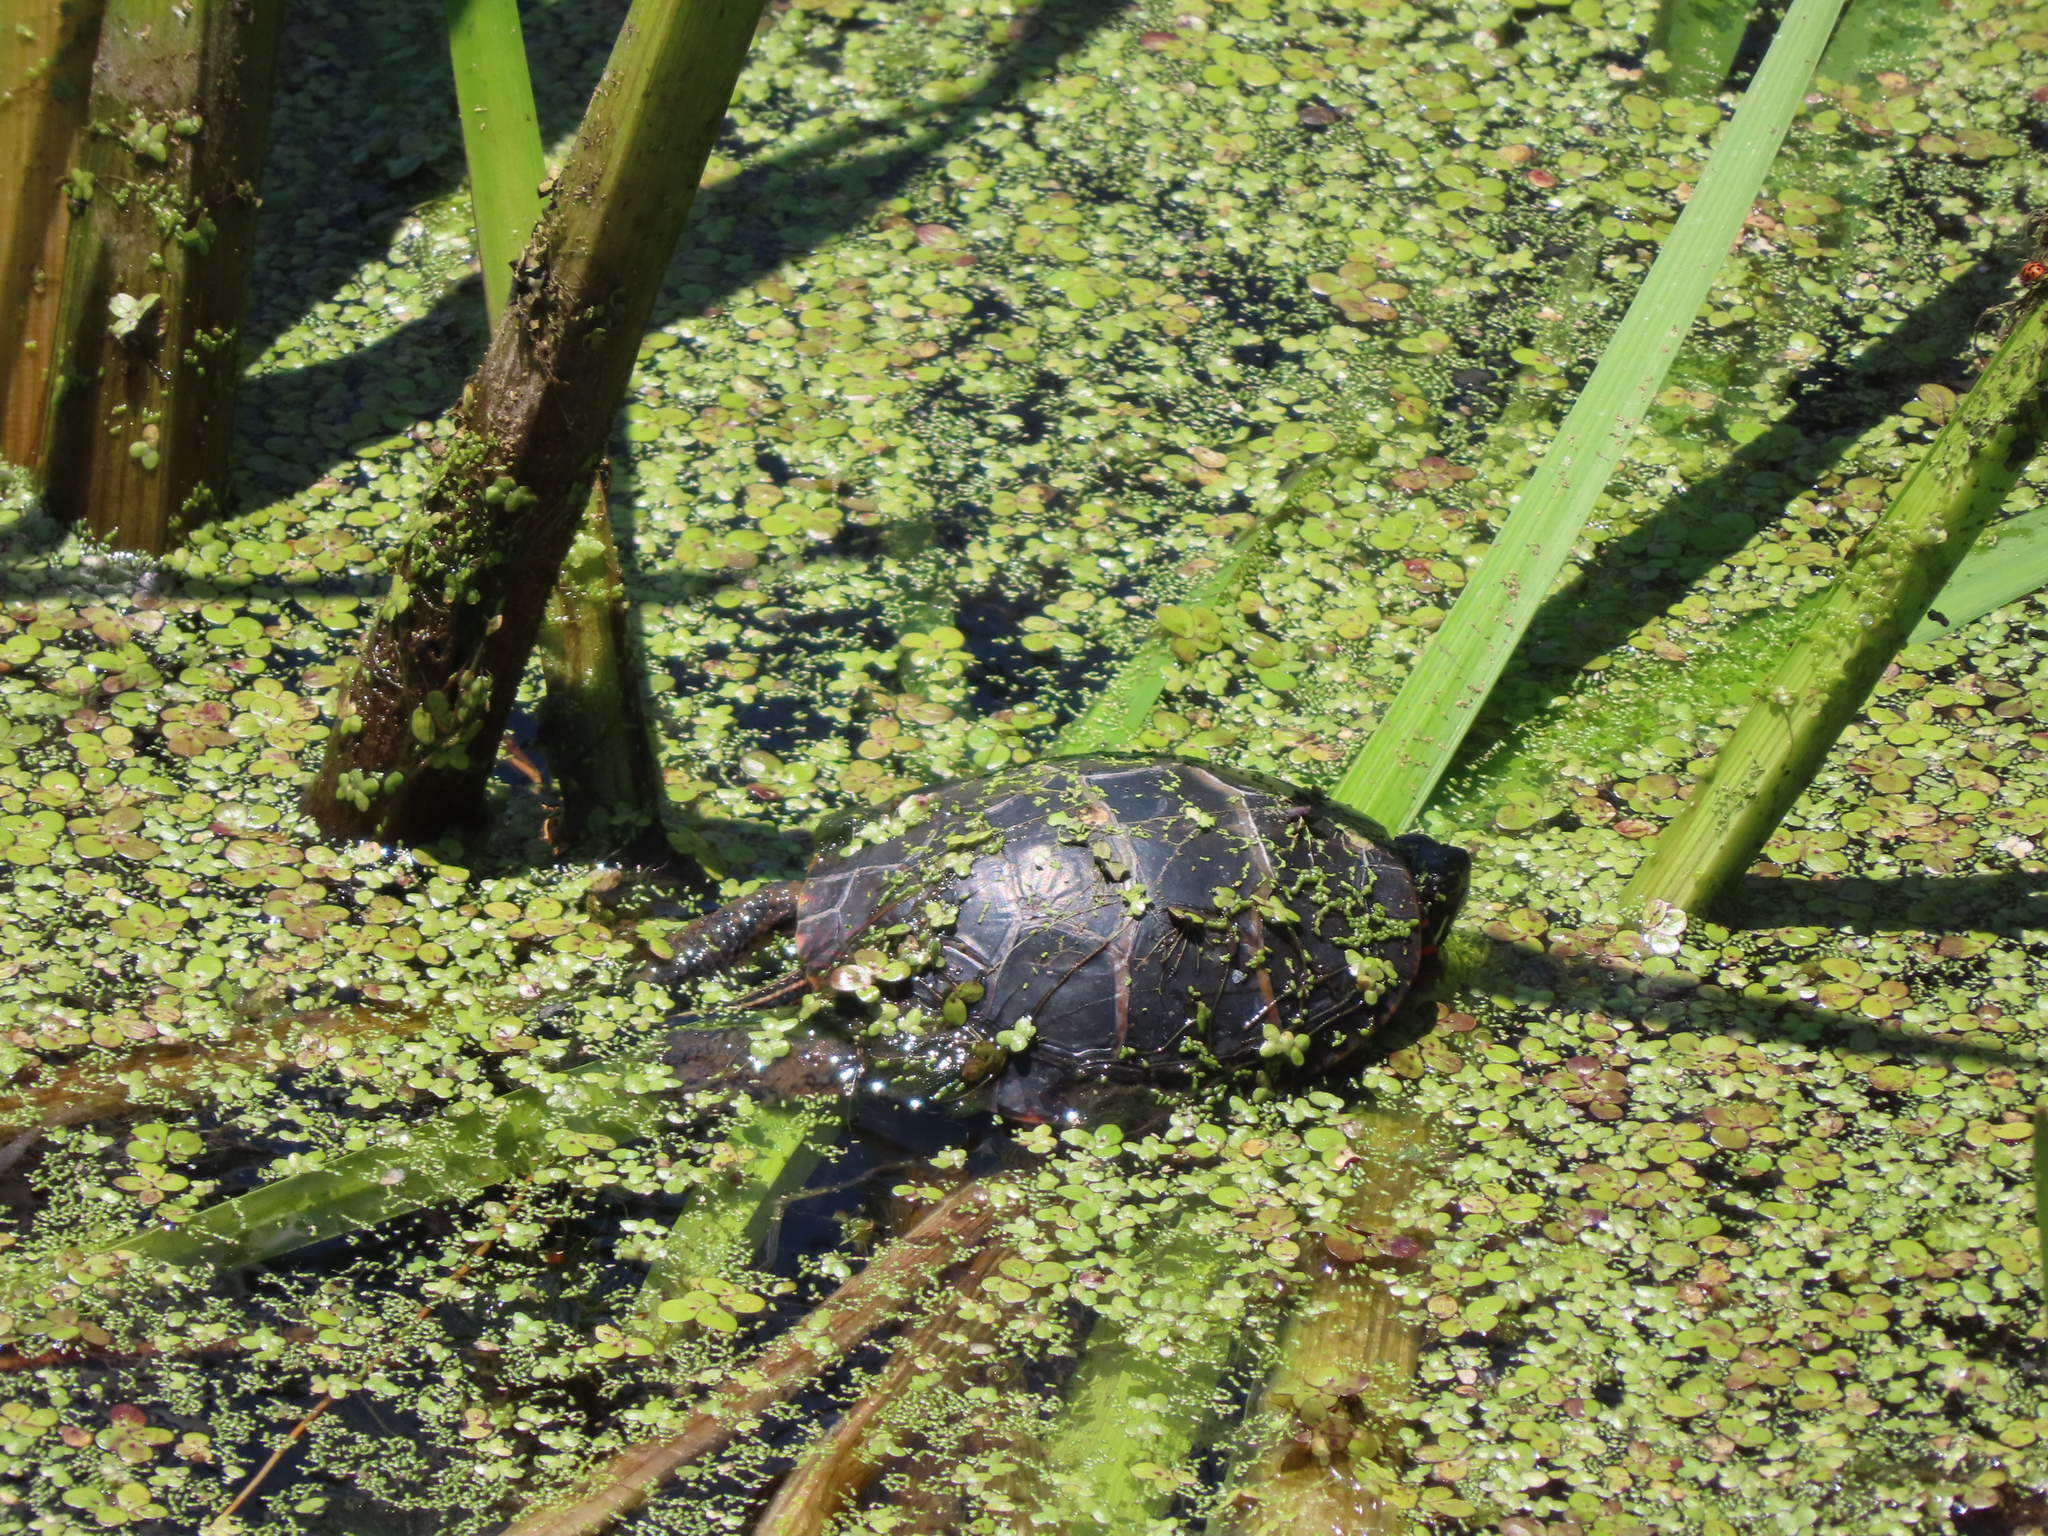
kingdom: Animalia
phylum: Chordata
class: Testudines
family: Emydidae
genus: Chrysemys
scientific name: Chrysemys picta
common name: Painted turtle
